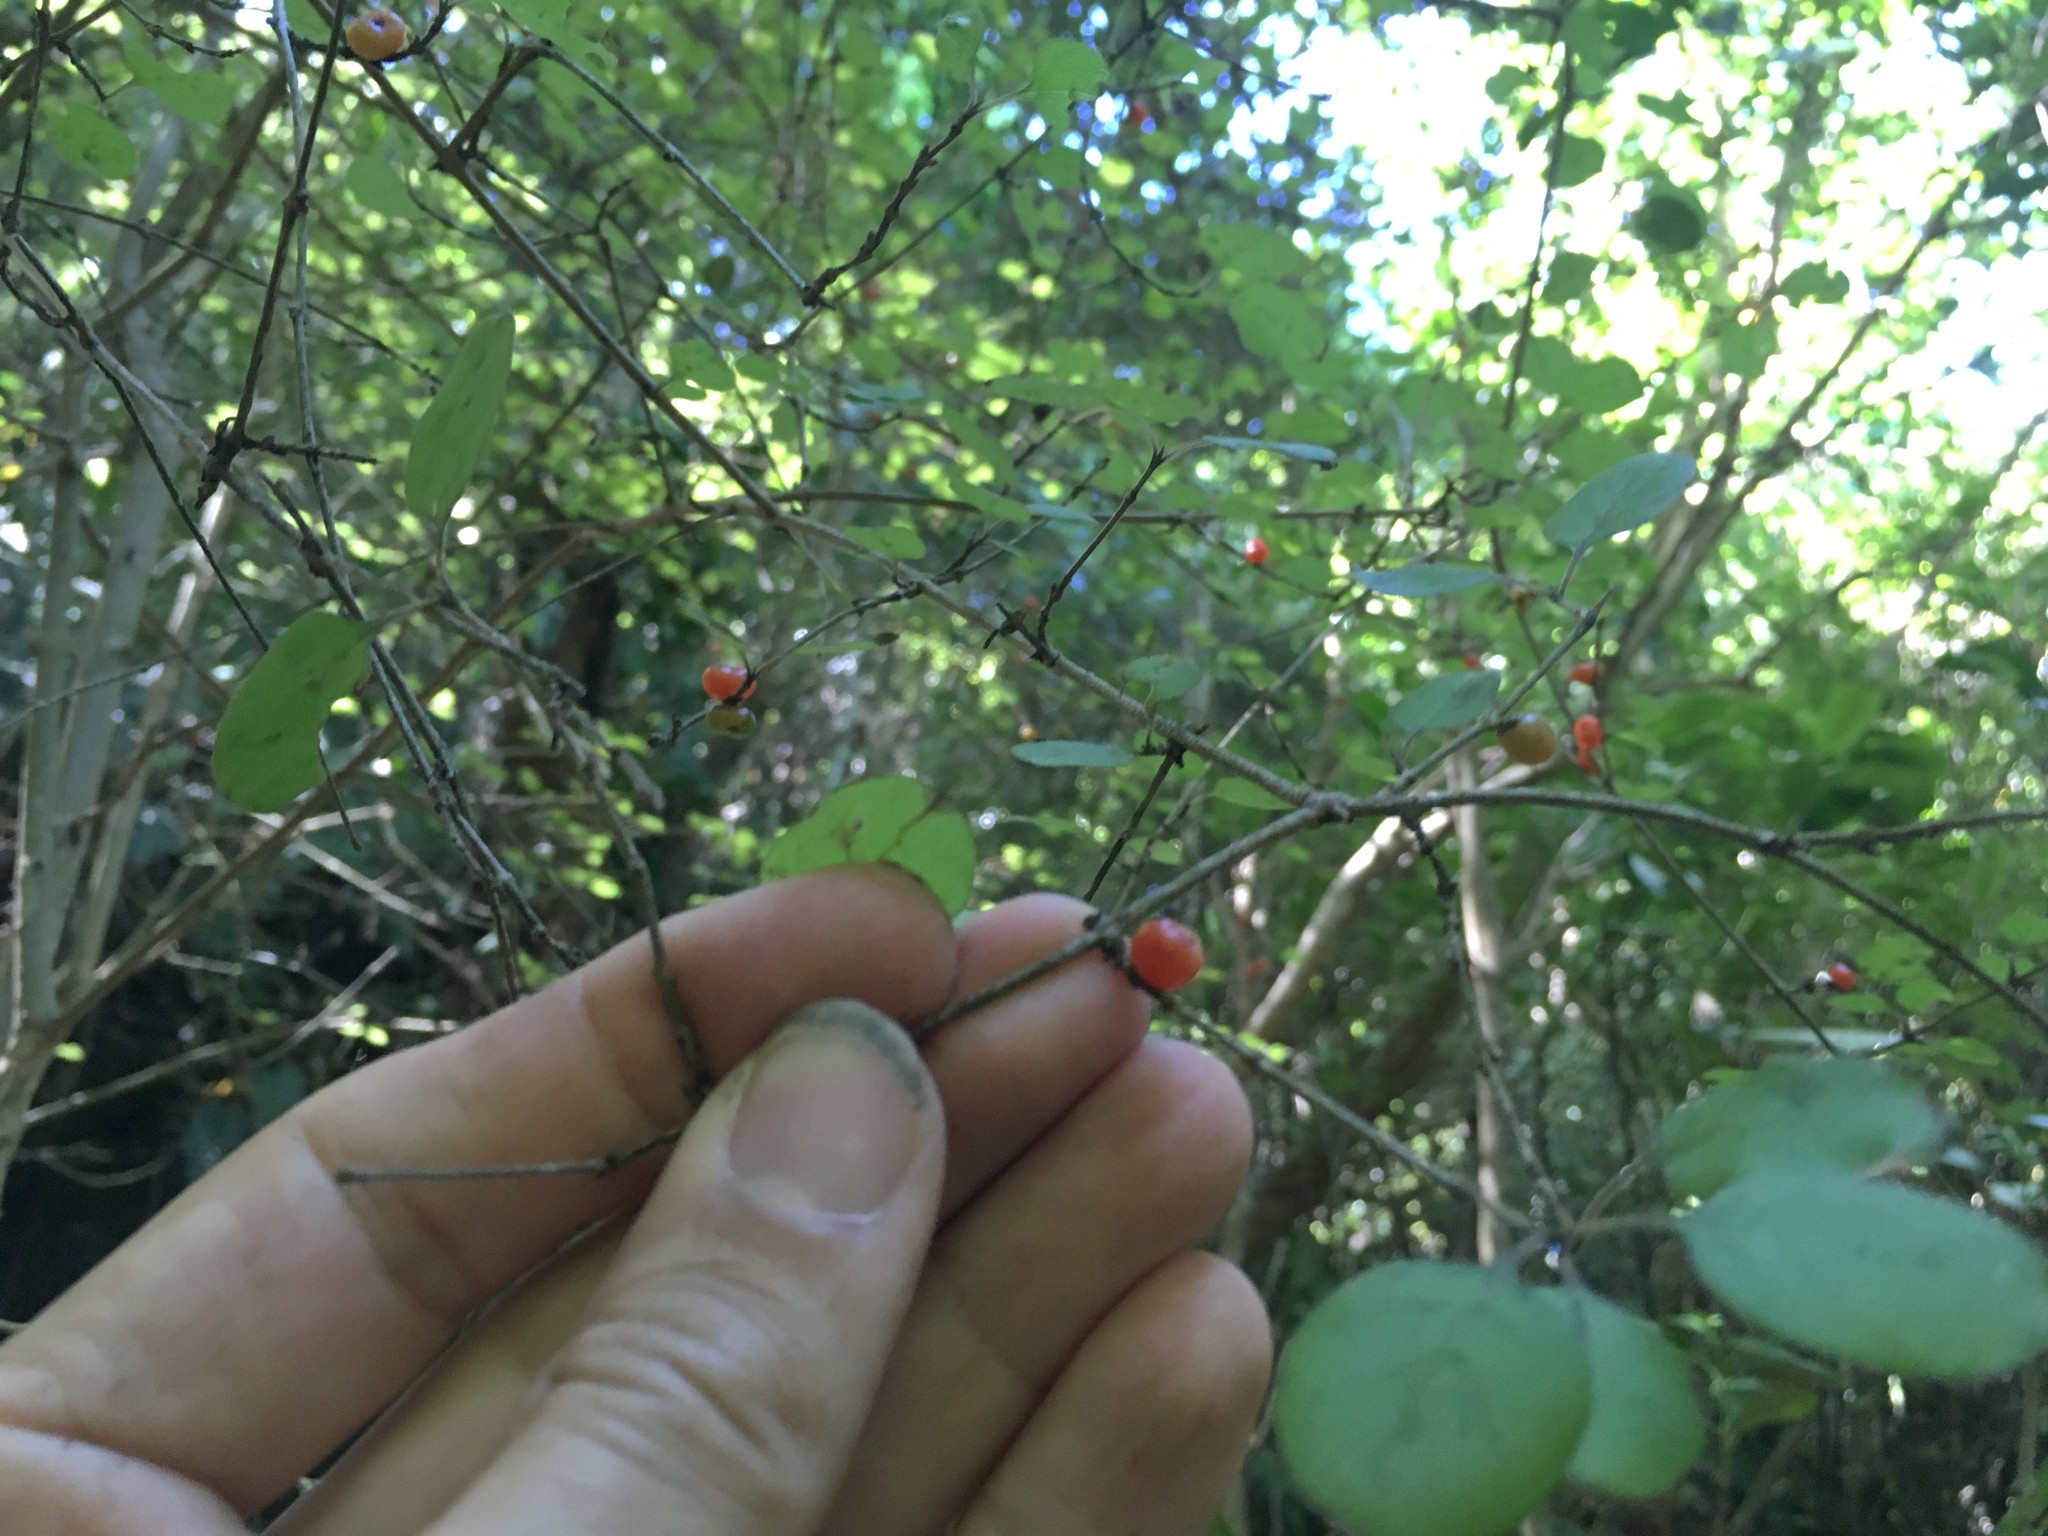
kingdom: Plantae
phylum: Tracheophyta
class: Magnoliopsida
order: Gentianales
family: Rubiaceae
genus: Coprosma
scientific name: Coprosma rotundifolia
